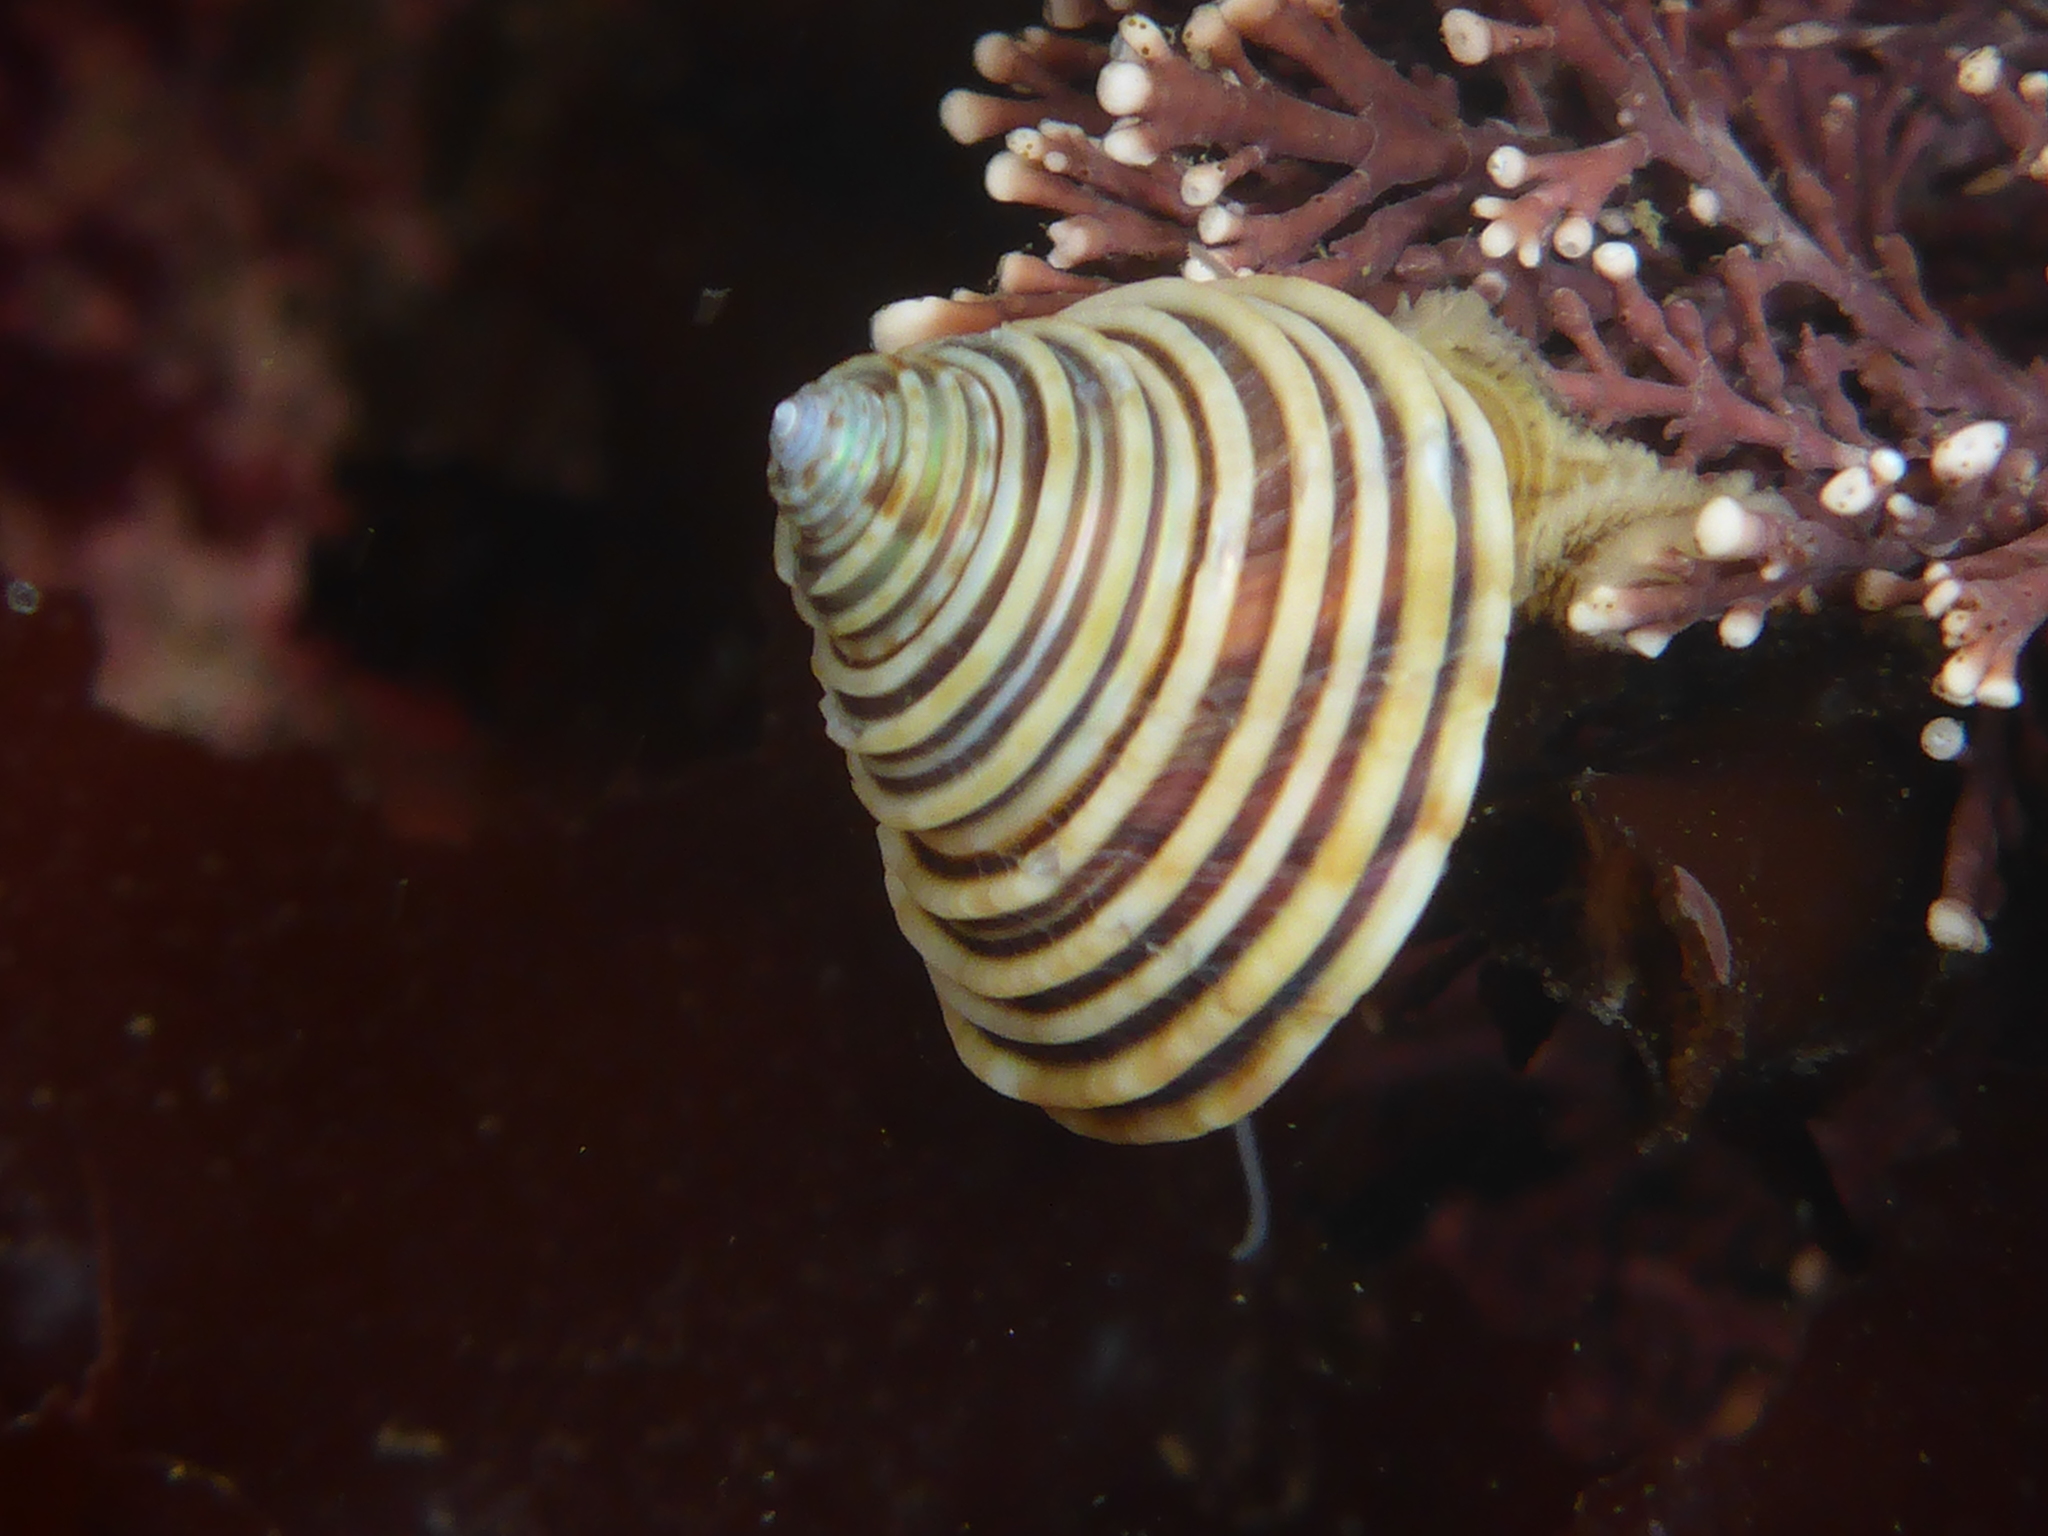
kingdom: Animalia
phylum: Mollusca
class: Gastropoda
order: Trochida
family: Calliostomatidae
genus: Calliostoma
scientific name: Calliostoma canaliculatum
